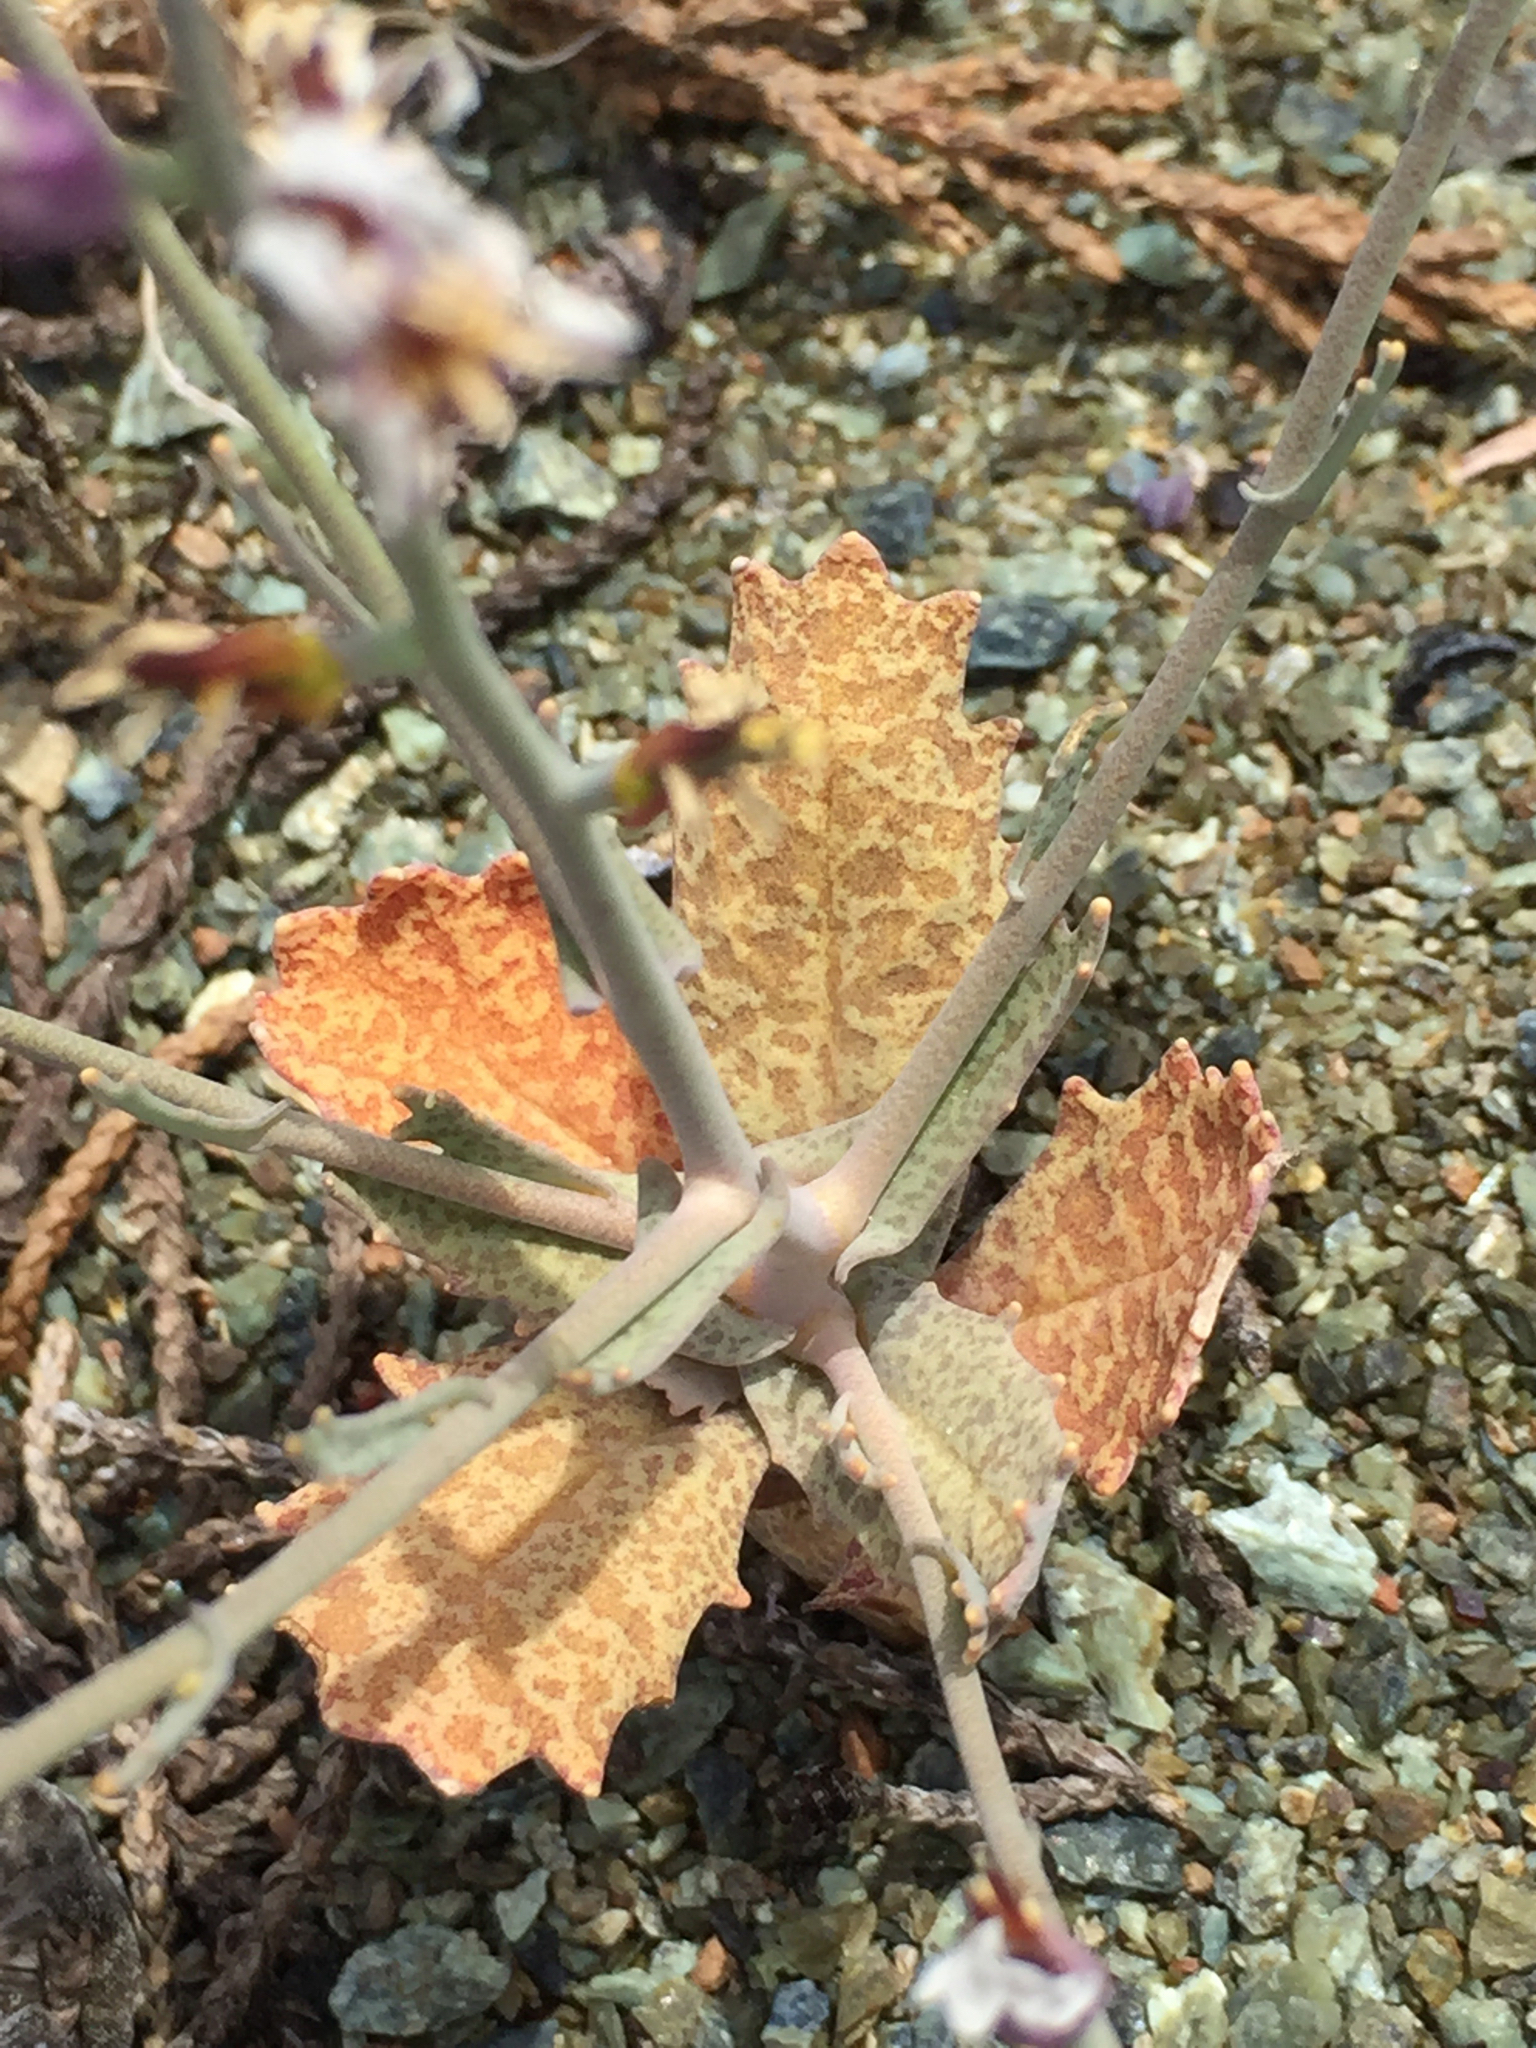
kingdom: Plantae
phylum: Tracheophyta
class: Magnoliopsida
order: Brassicales
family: Brassicaceae
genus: Streptanthus
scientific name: Streptanthus batrachopus
